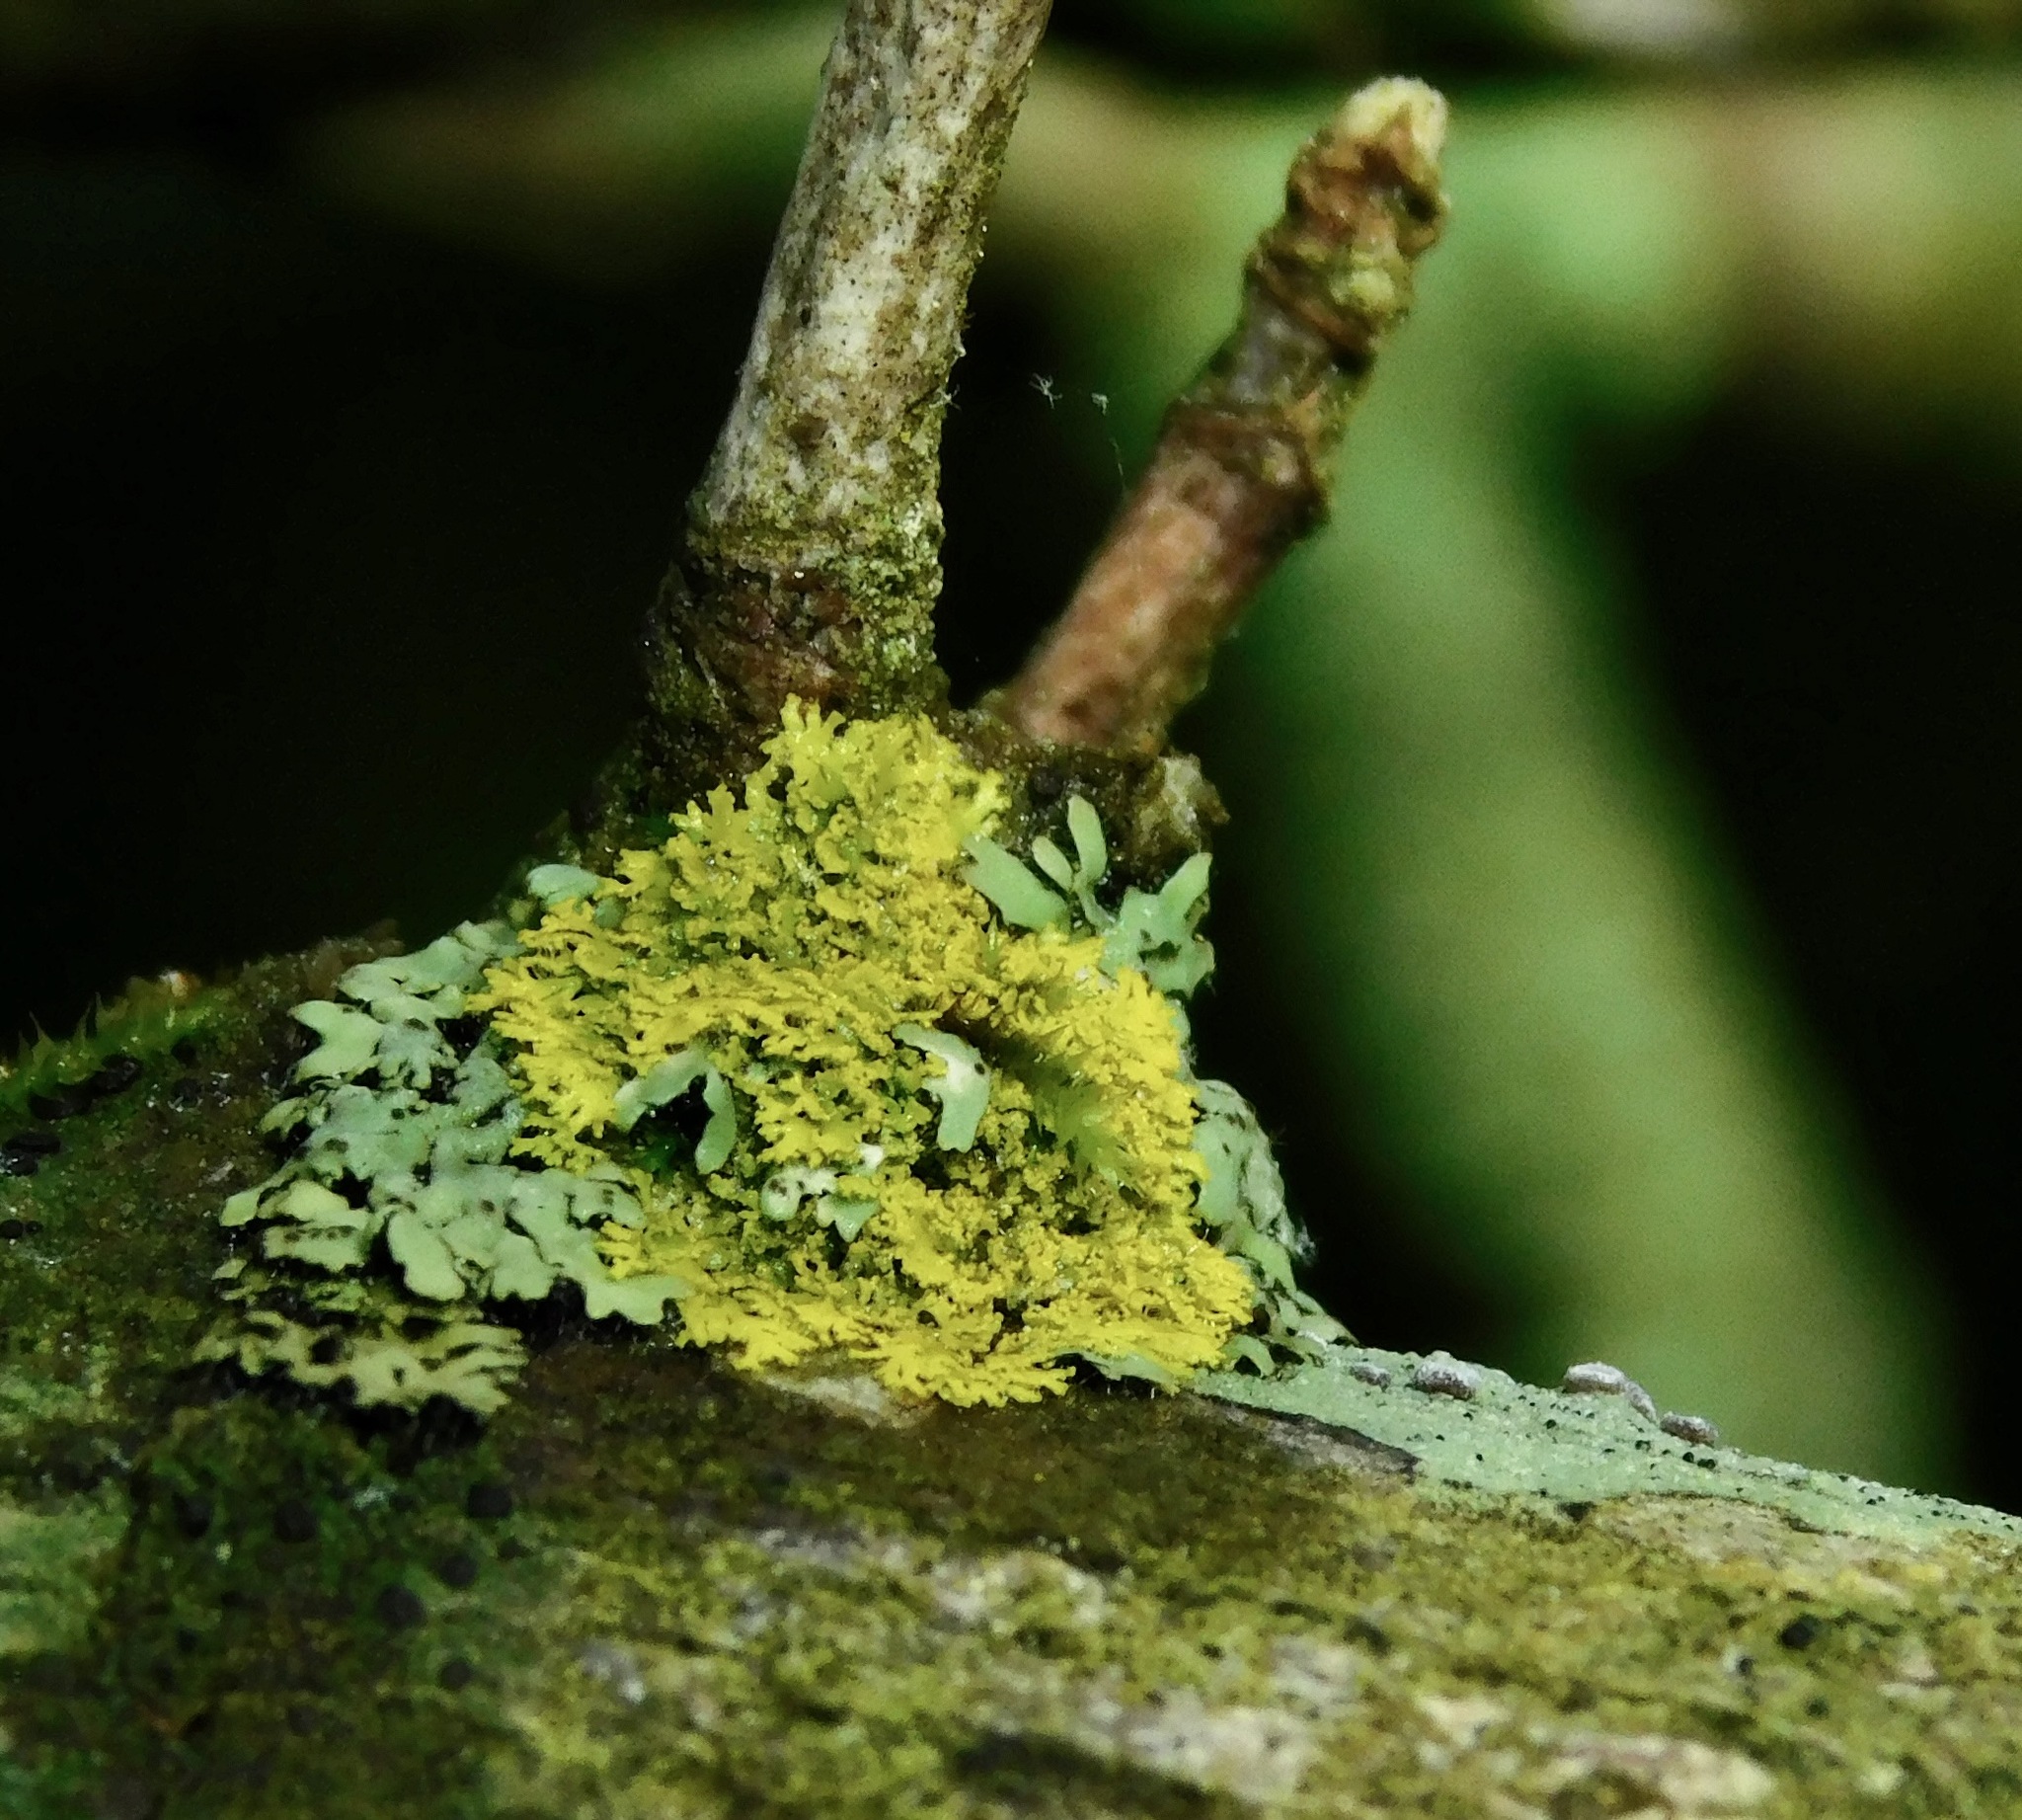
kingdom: Fungi
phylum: Ascomycota
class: Candelariomycetes
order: Candelariales
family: Candelariaceae
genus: Candelaria
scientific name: Candelaria concolor
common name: Candleflame lichen
